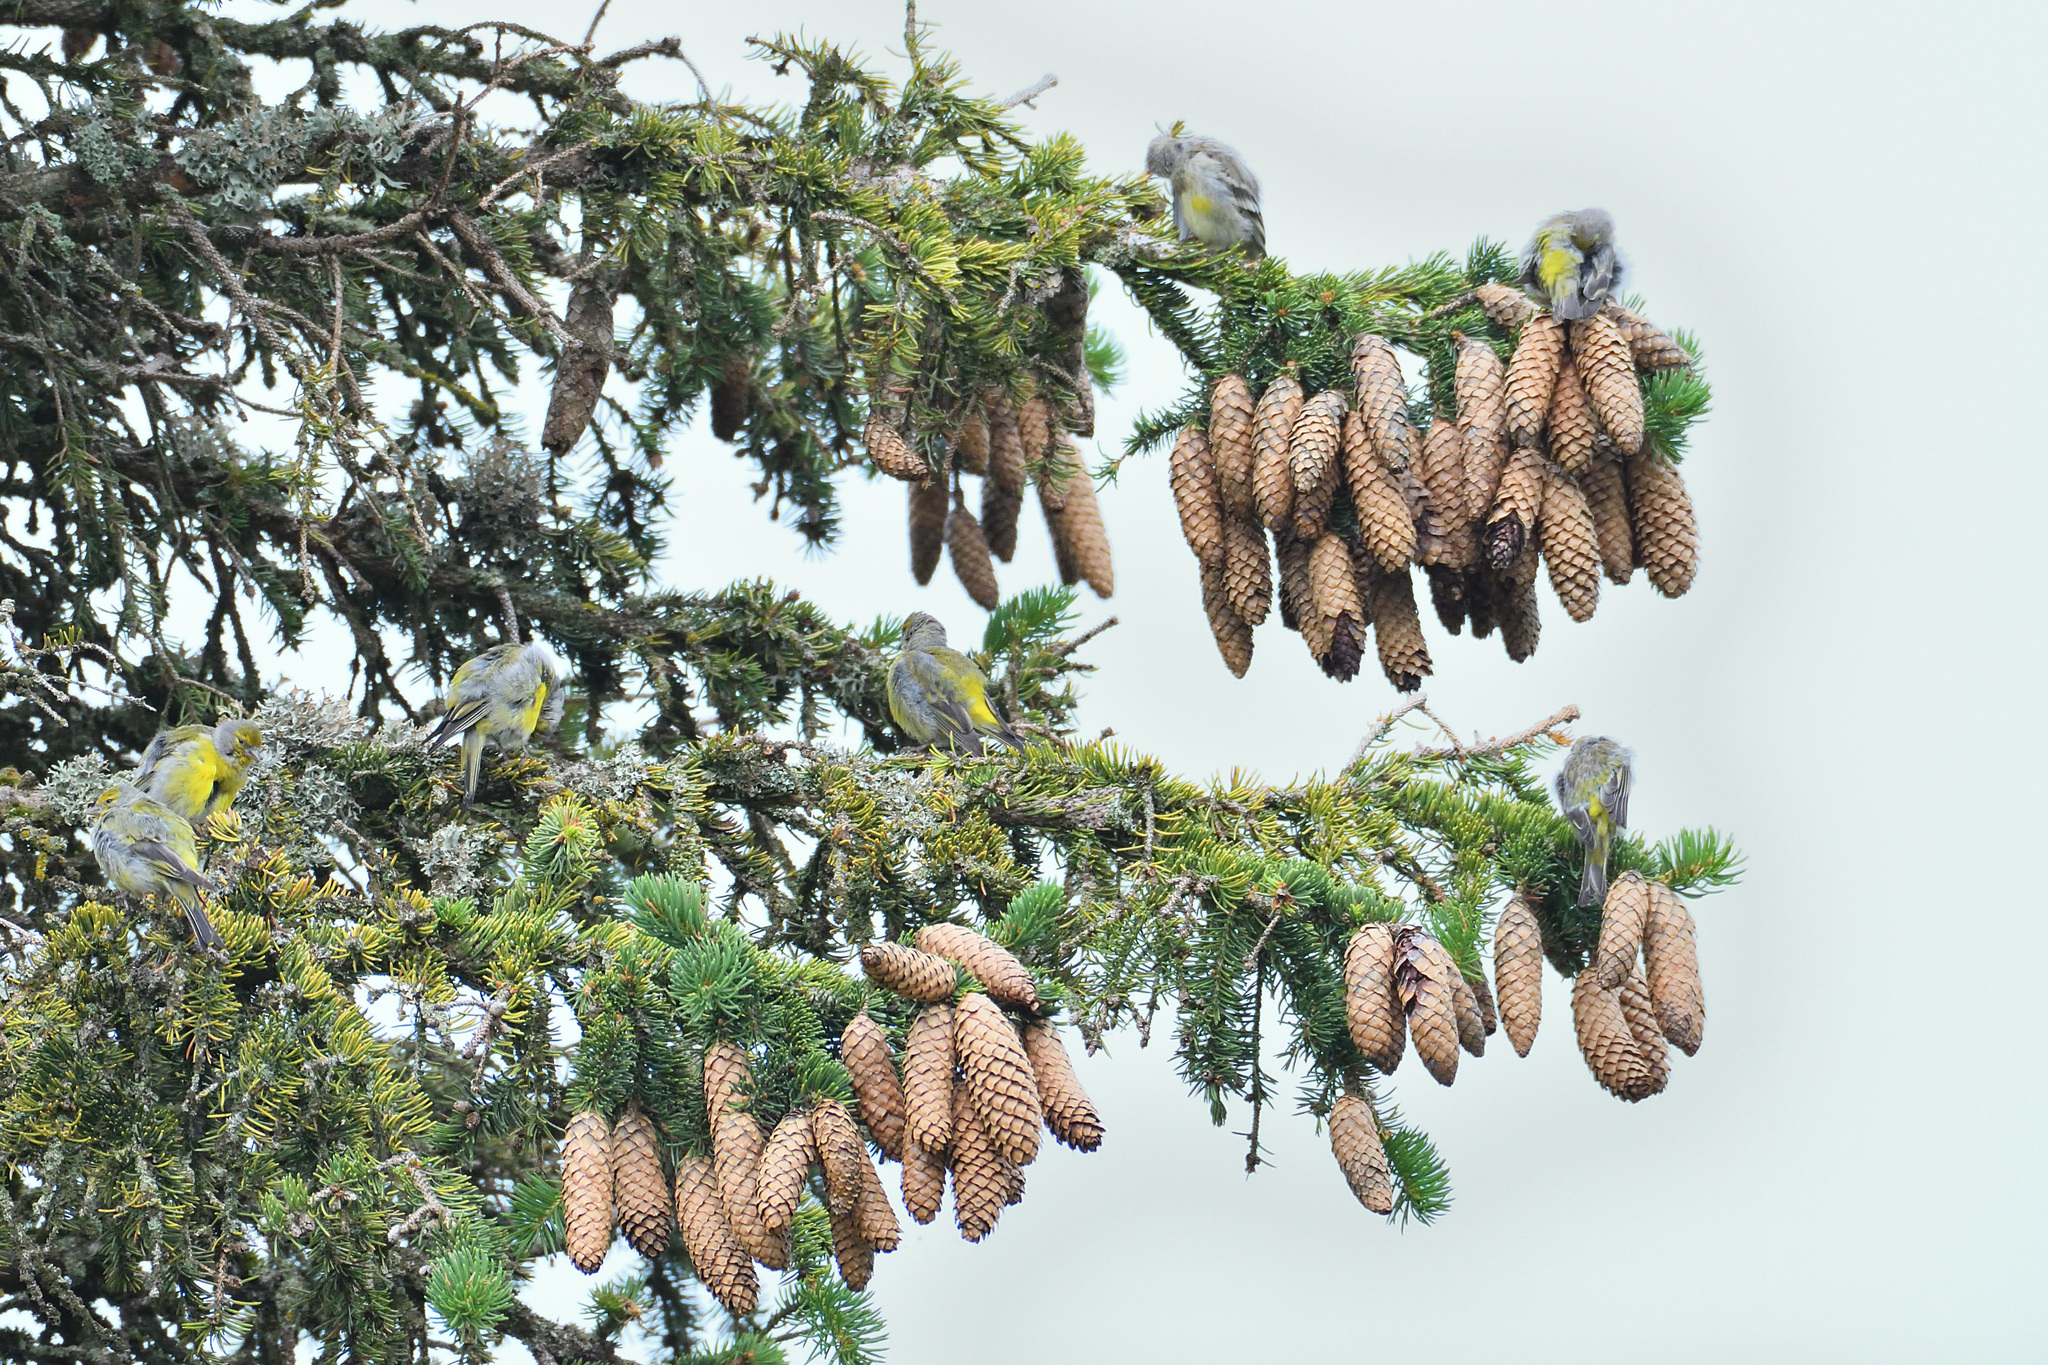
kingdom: Animalia
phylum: Chordata
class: Aves
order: Passeriformes
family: Fringillidae
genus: Carduelis
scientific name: Carduelis citrinella
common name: Citril finch
